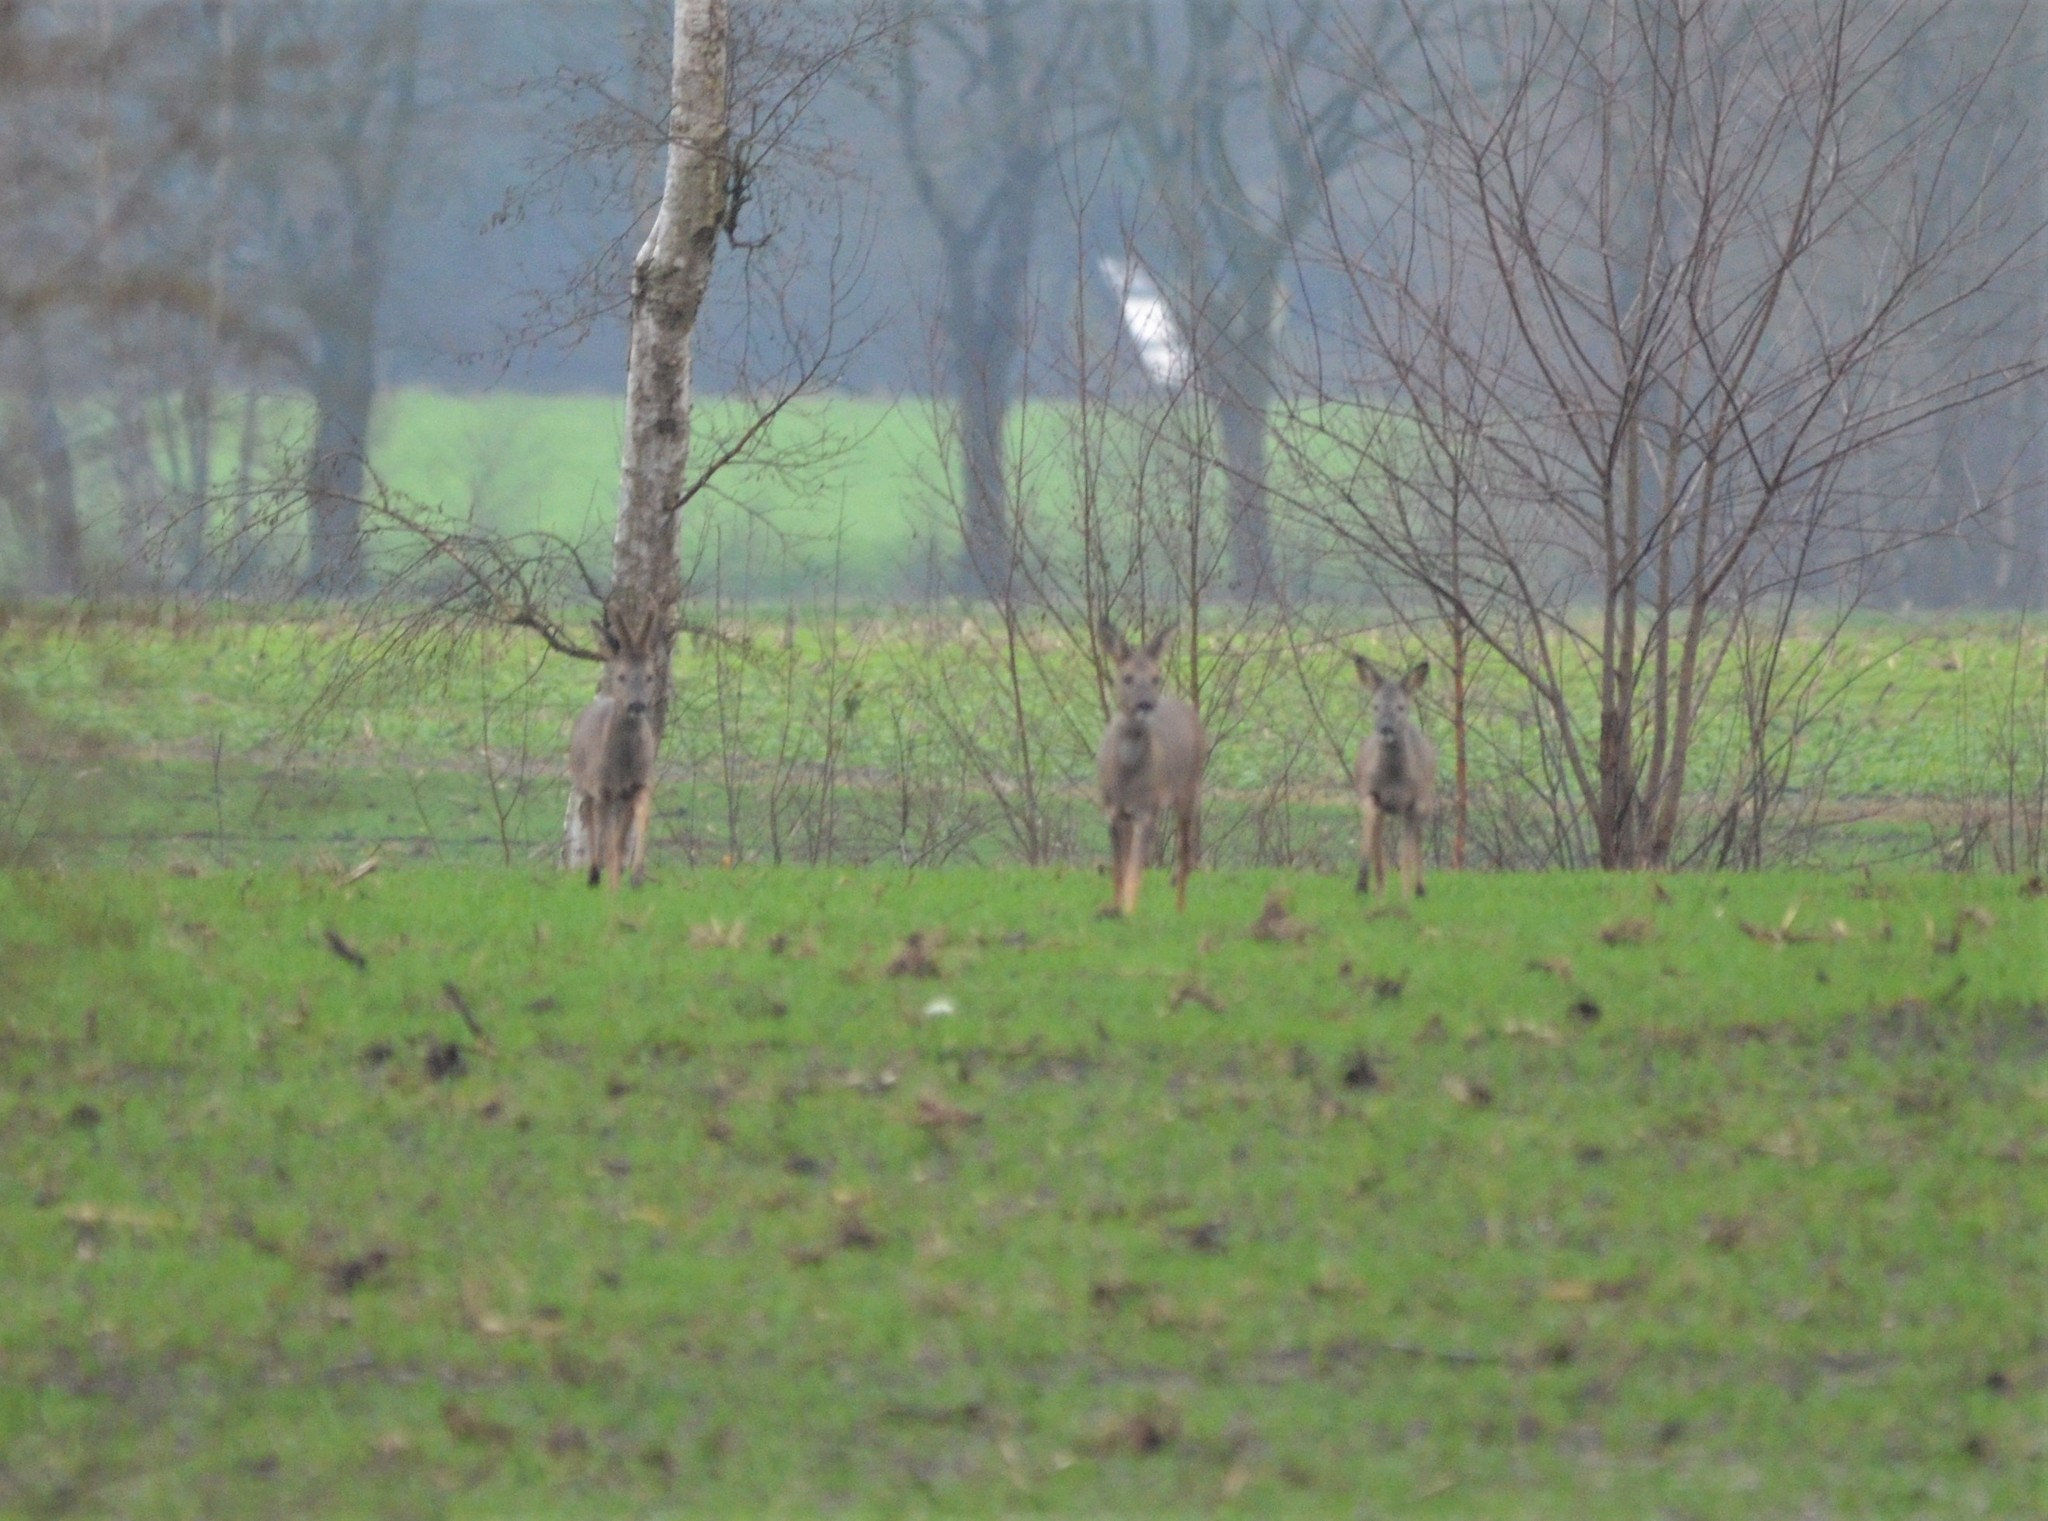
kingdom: Animalia
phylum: Chordata
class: Mammalia
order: Artiodactyla
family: Cervidae
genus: Capreolus
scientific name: Capreolus capreolus
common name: Western roe deer
